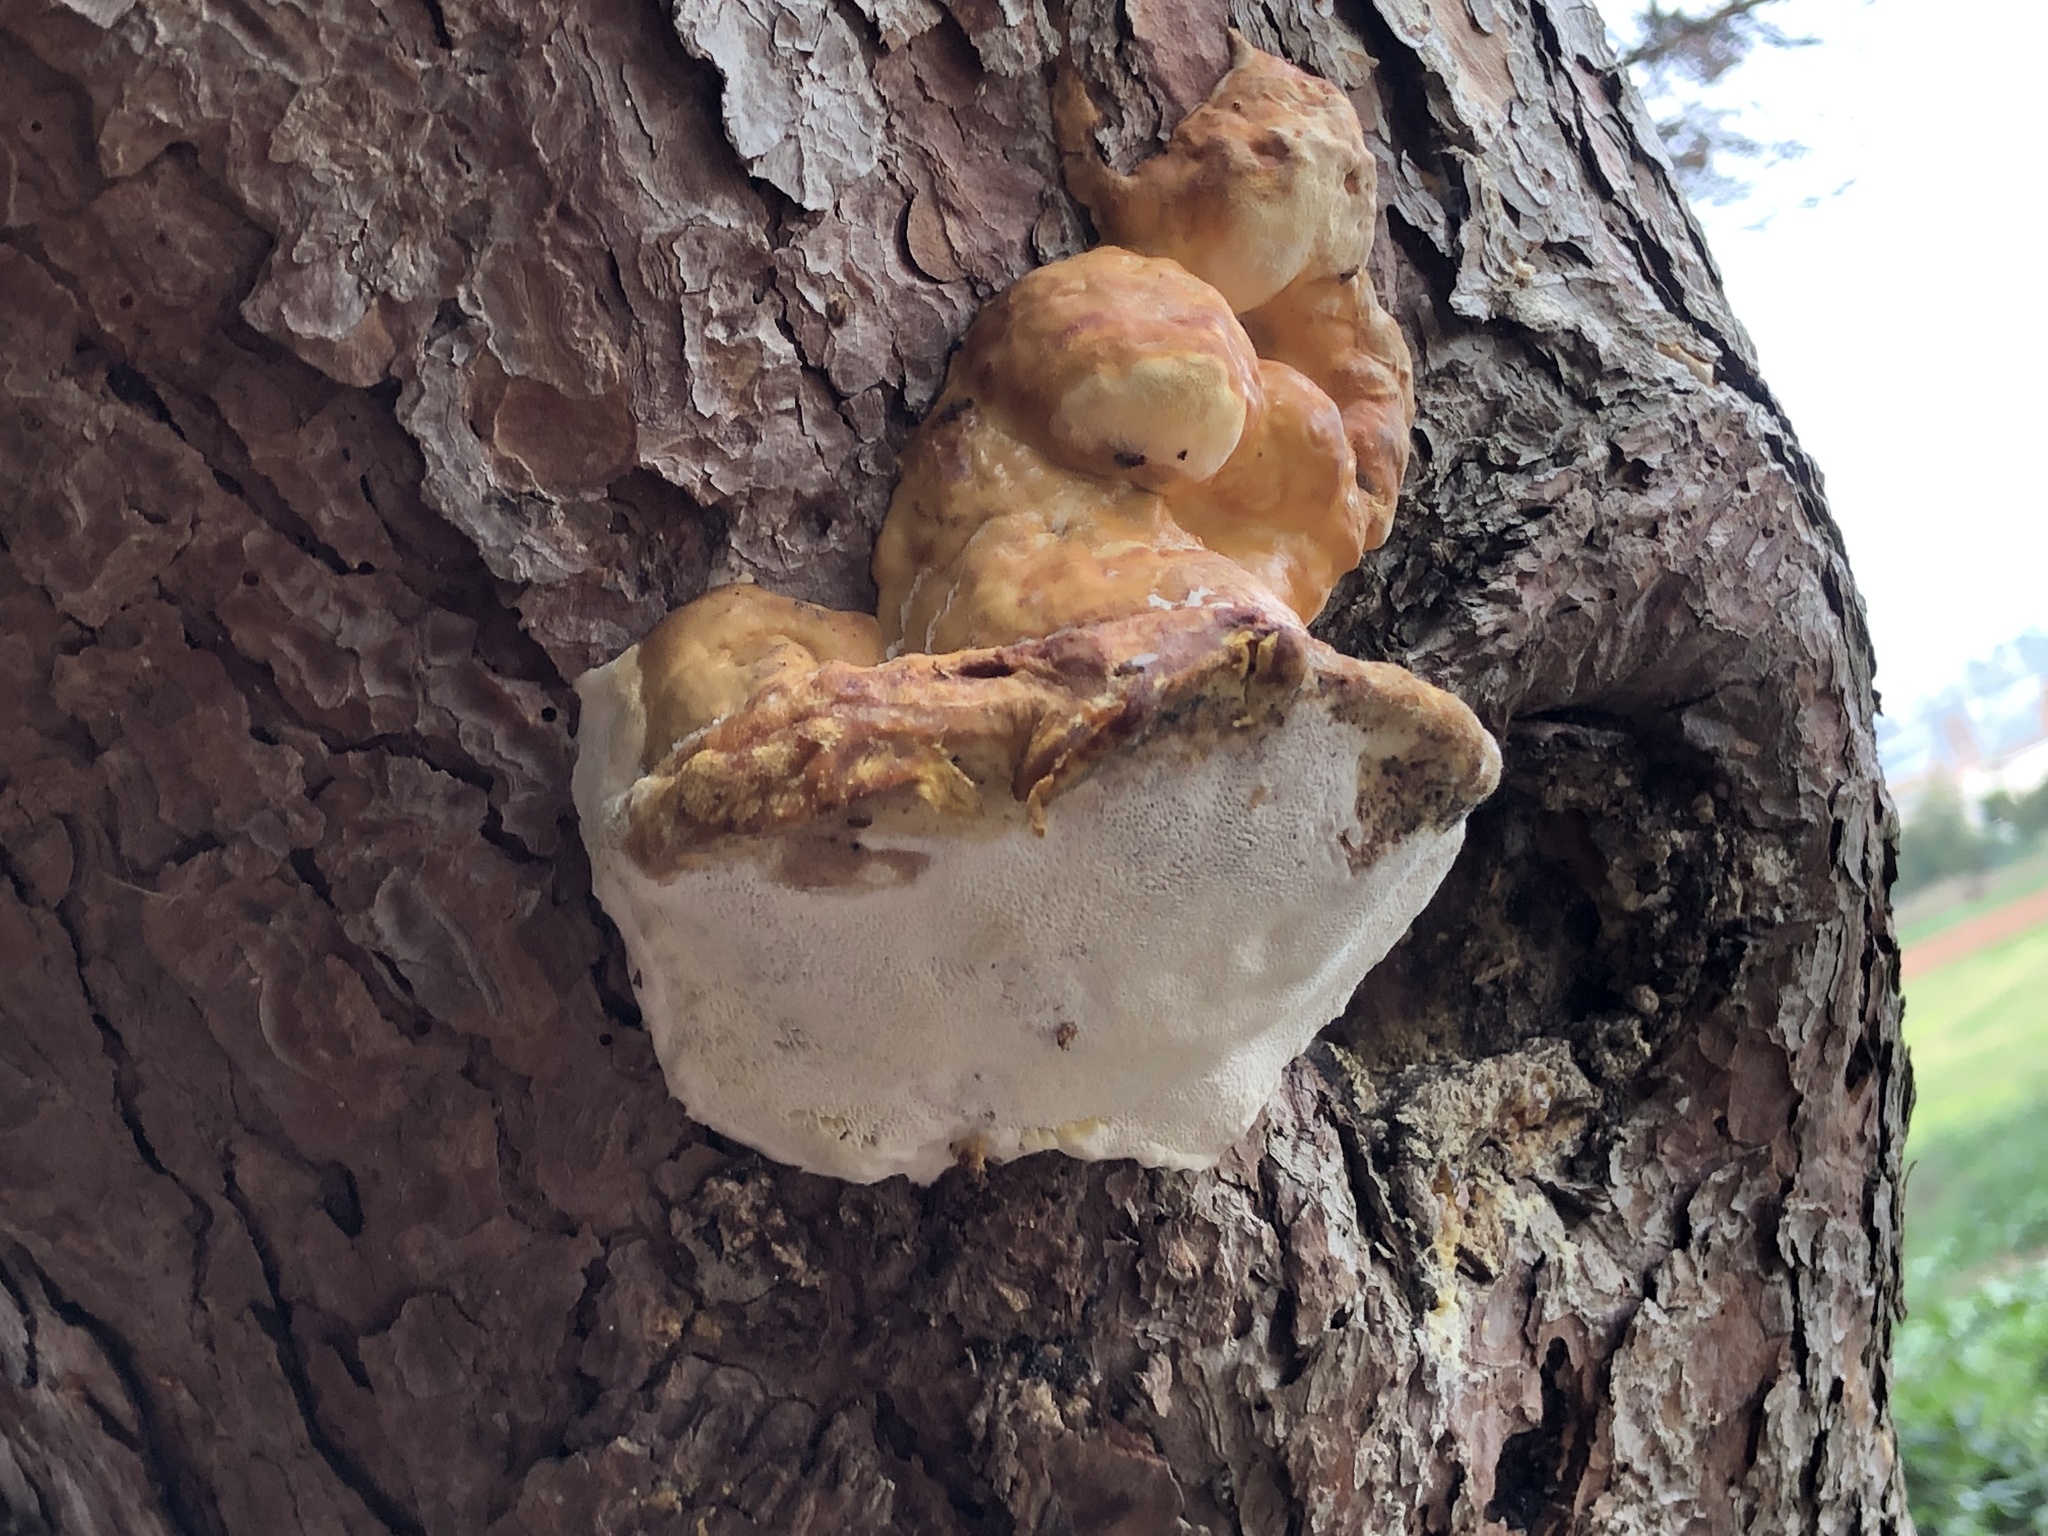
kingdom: Fungi
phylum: Basidiomycota
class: Agaricomycetes
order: Polyporales
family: Fomitopsidaceae
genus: Fomitopsis
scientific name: Fomitopsis pinicola
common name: Red-belted bracket
